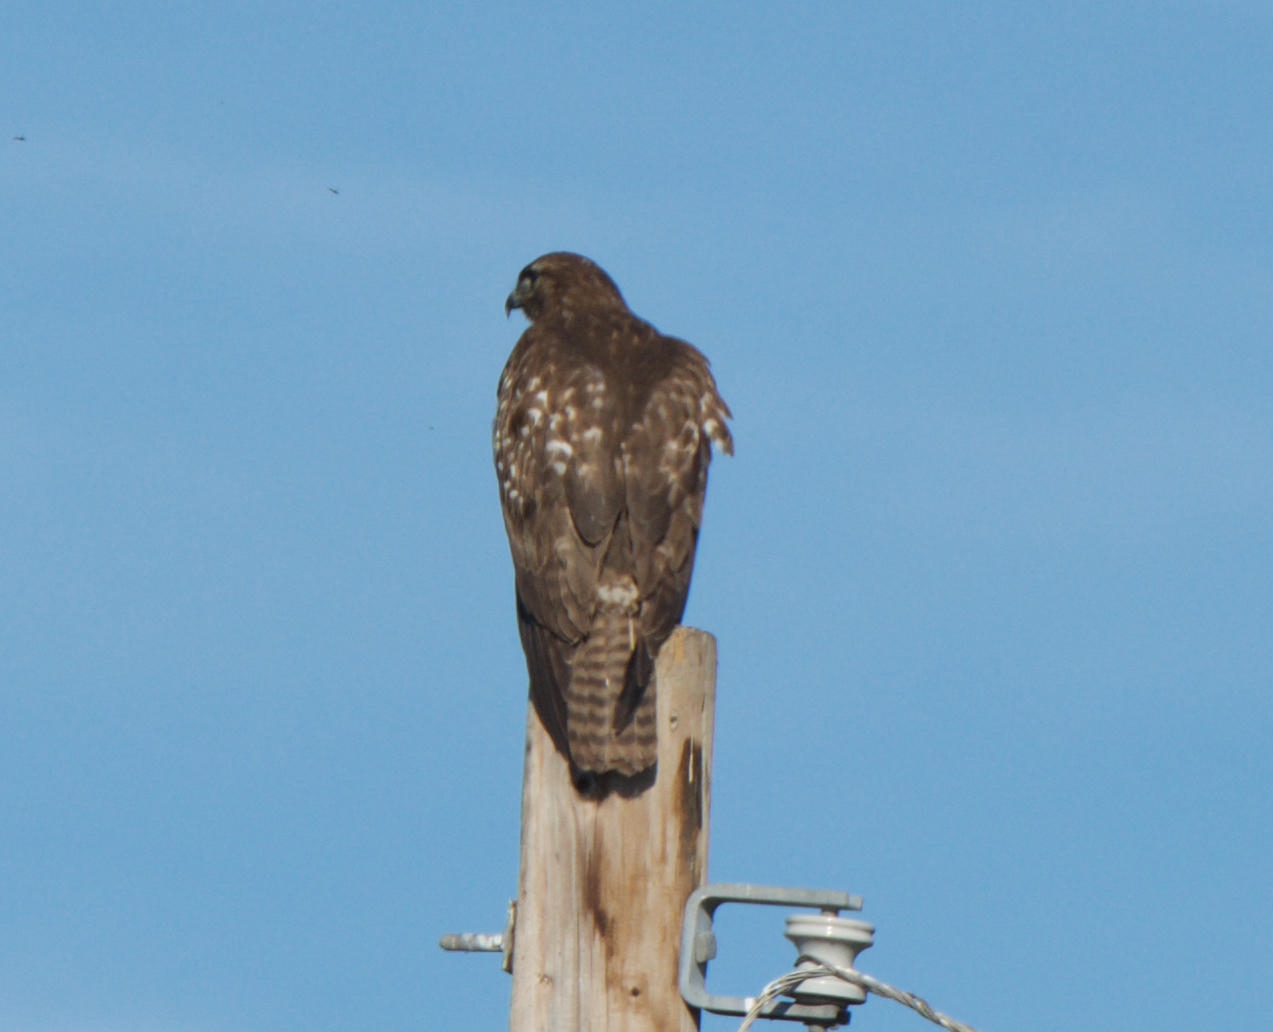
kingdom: Animalia
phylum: Chordata
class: Aves
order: Accipitriformes
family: Accipitridae
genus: Buteo
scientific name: Buteo jamaicensis
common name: Red-tailed hawk
